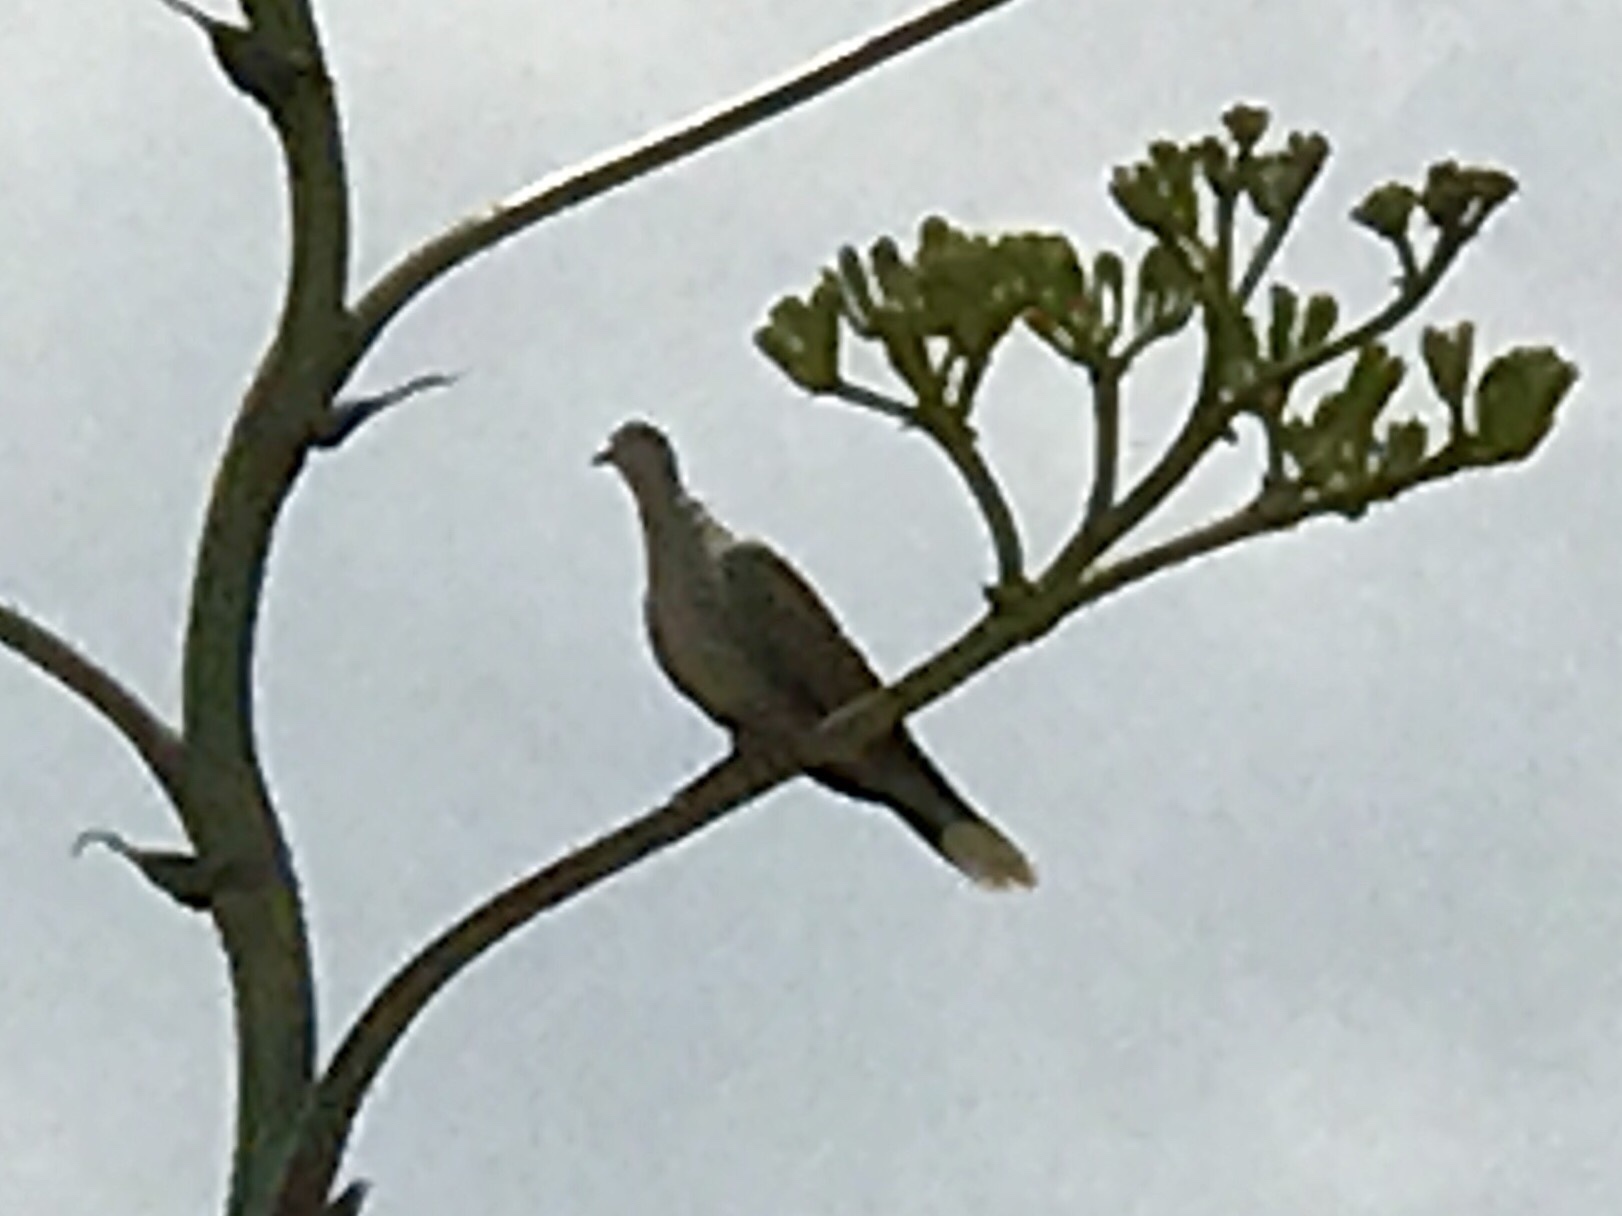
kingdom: Animalia
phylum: Chordata
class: Aves
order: Columbiformes
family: Columbidae
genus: Streptopelia
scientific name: Streptopelia decaocto
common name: Eurasian collared dove
